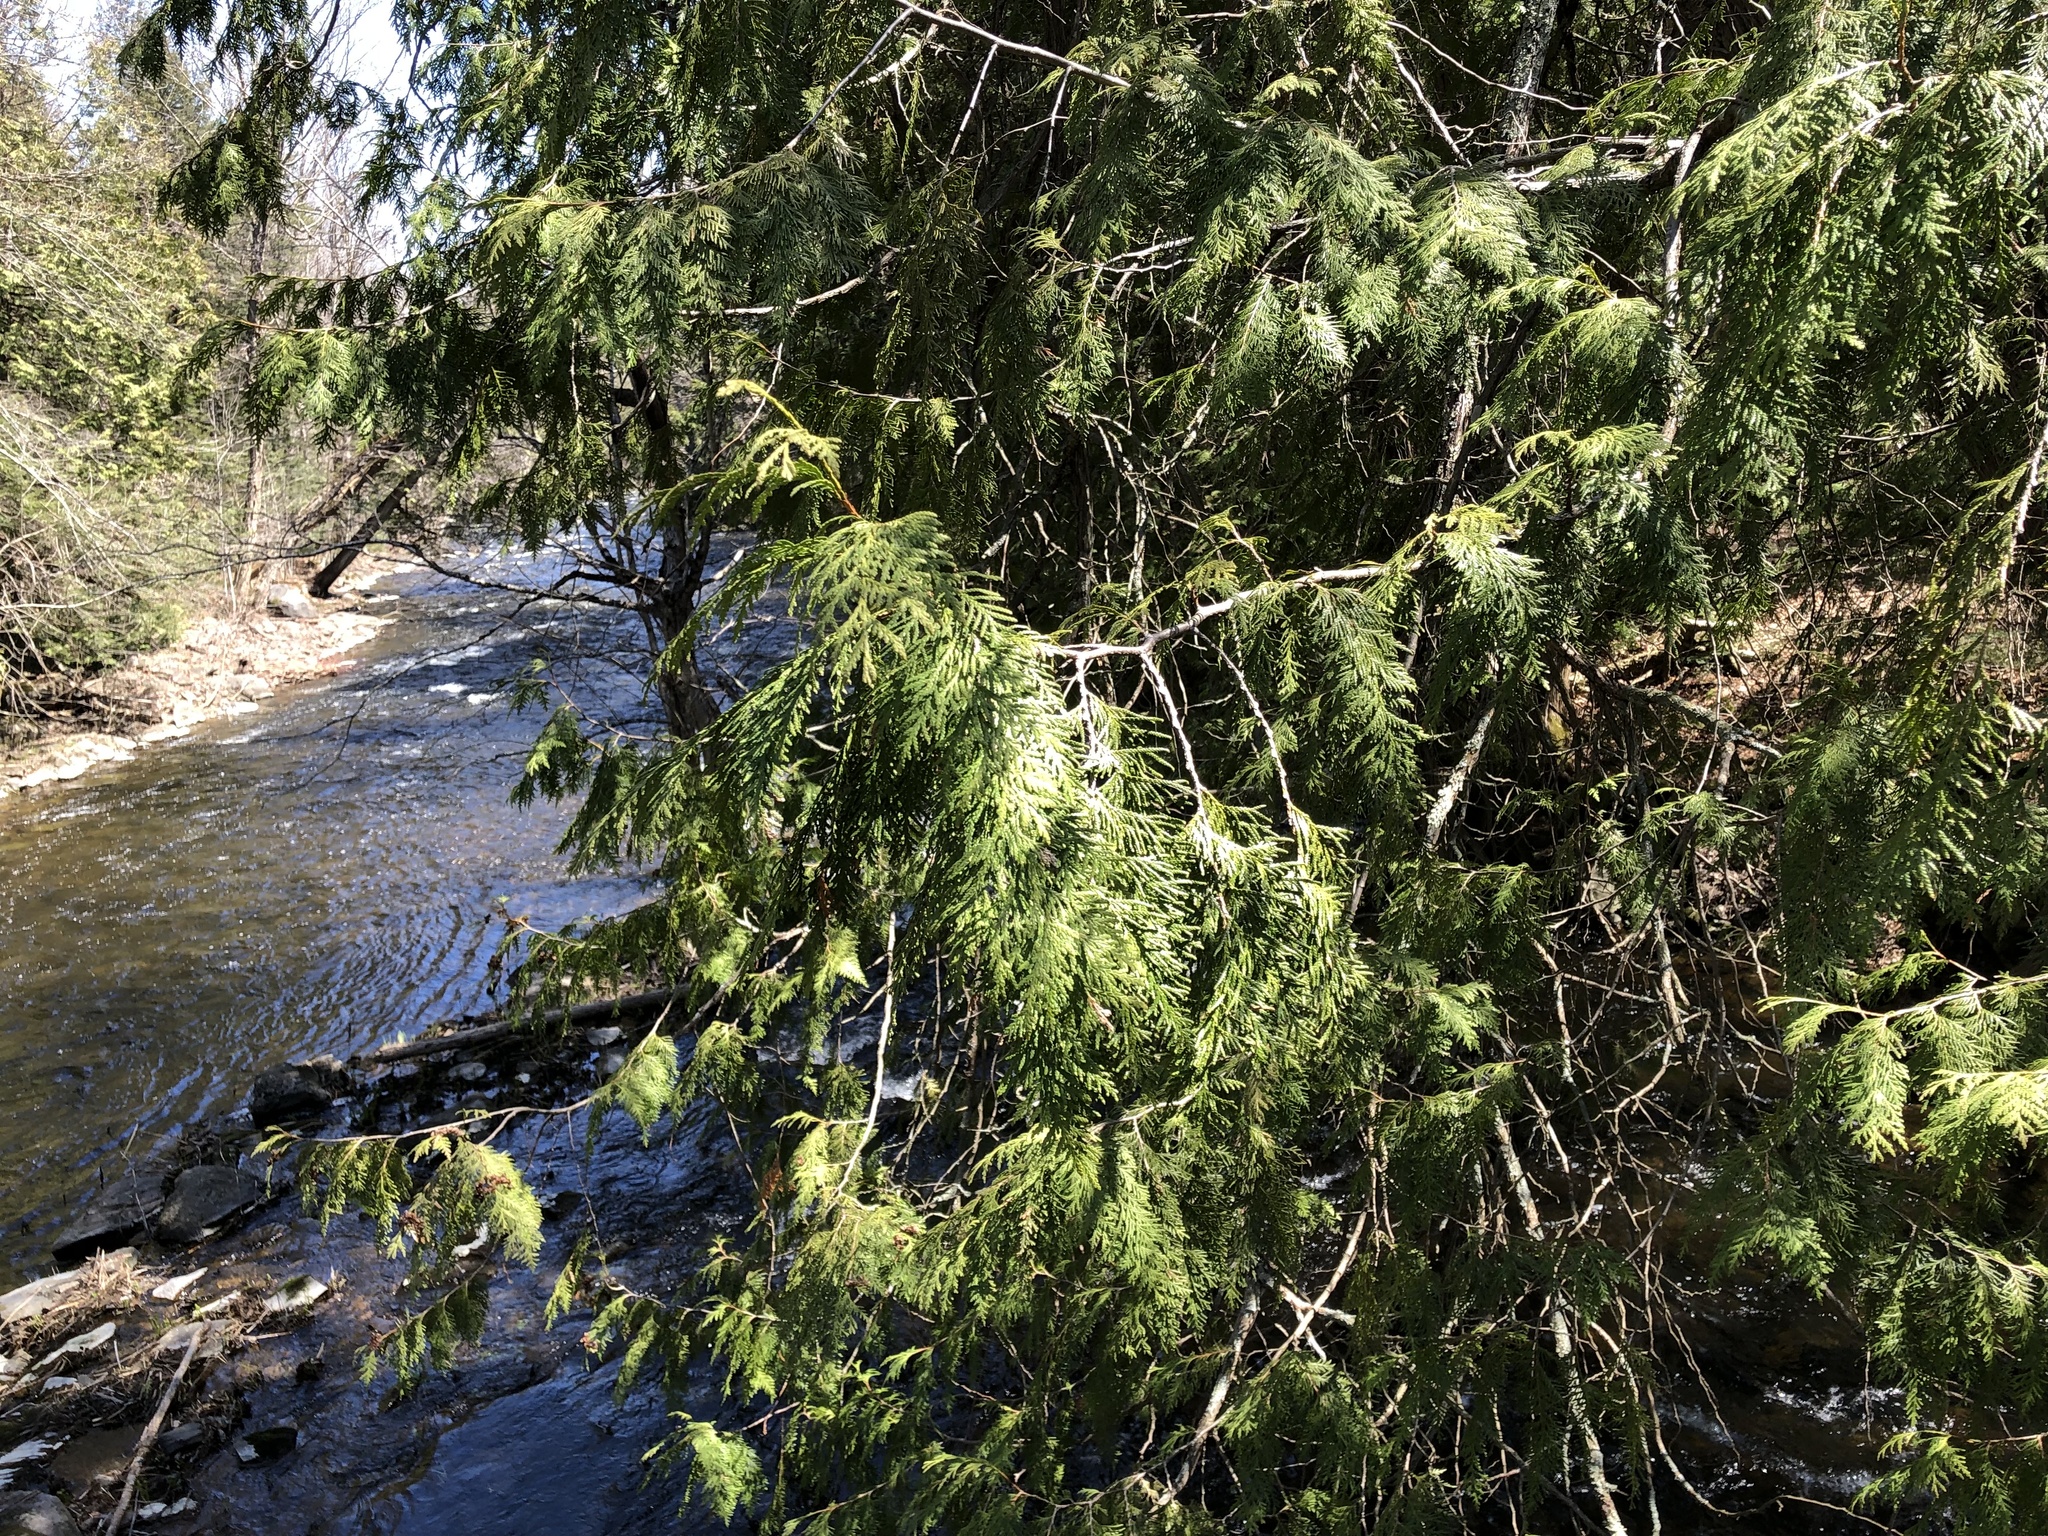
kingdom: Plantae
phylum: Tracheophyta
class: Pinopsida
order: Pinales
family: Cupressaceae
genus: Thuja
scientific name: Thuja occidentalis
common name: Northern white-cedar
